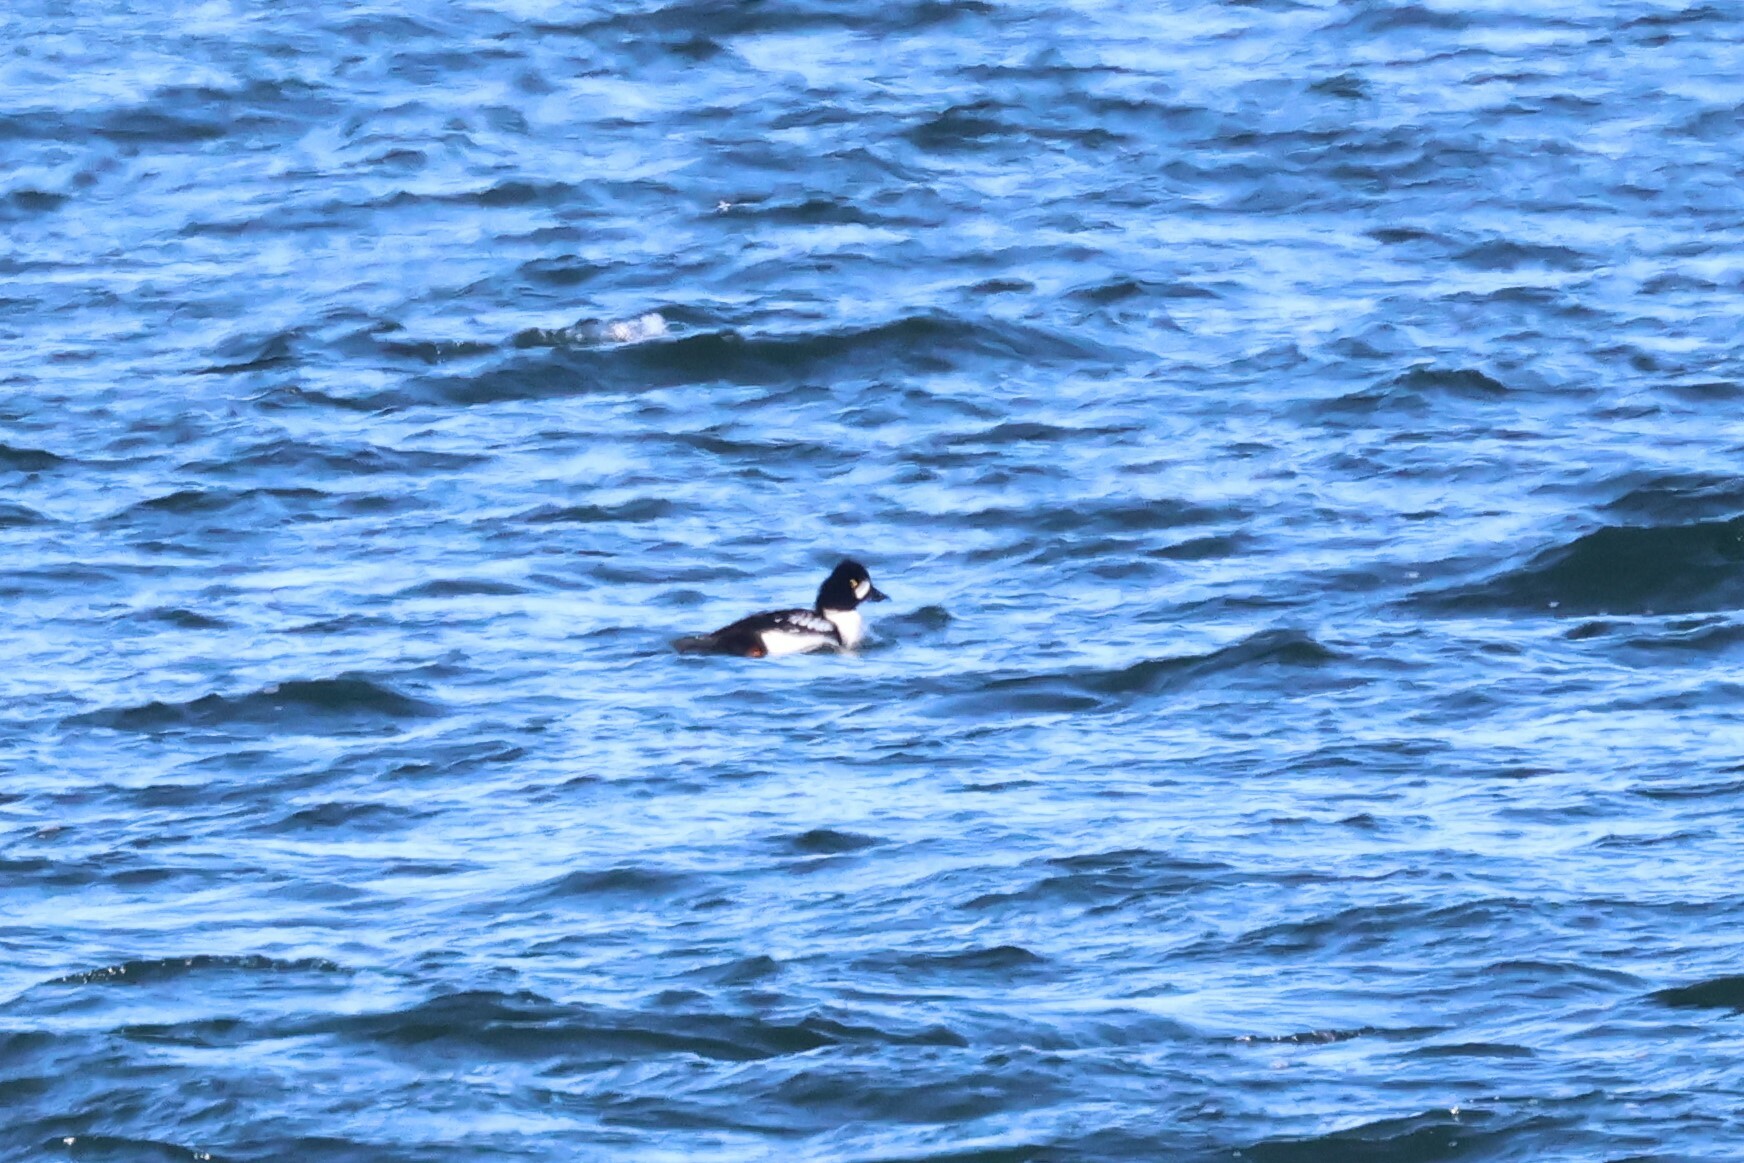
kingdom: Animalia
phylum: Chordata
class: Aves
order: Anseriformes
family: Anatidae
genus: Bucephala
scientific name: Bucephala islandica
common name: Barrow's goldeneye
